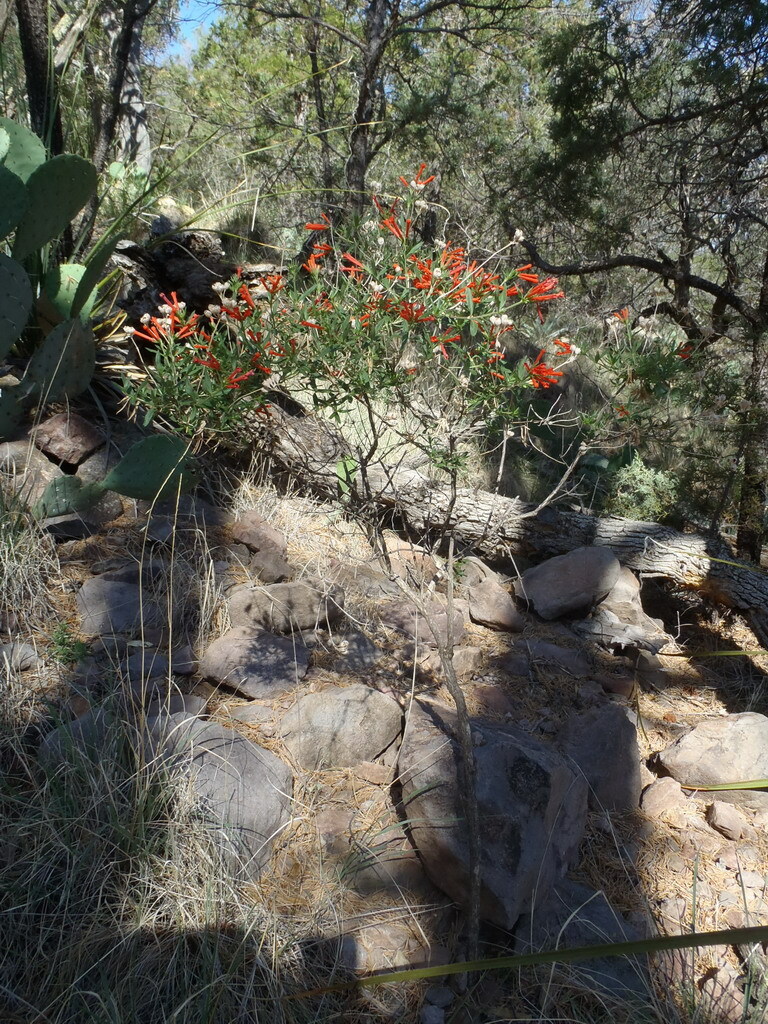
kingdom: Plantae
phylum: Tracheophyta
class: Magnoliopsida
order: Gentianales
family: Rubiaceae
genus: Bouvardia
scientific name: Bouvardia ternifolia
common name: Scarlet bouvardia
